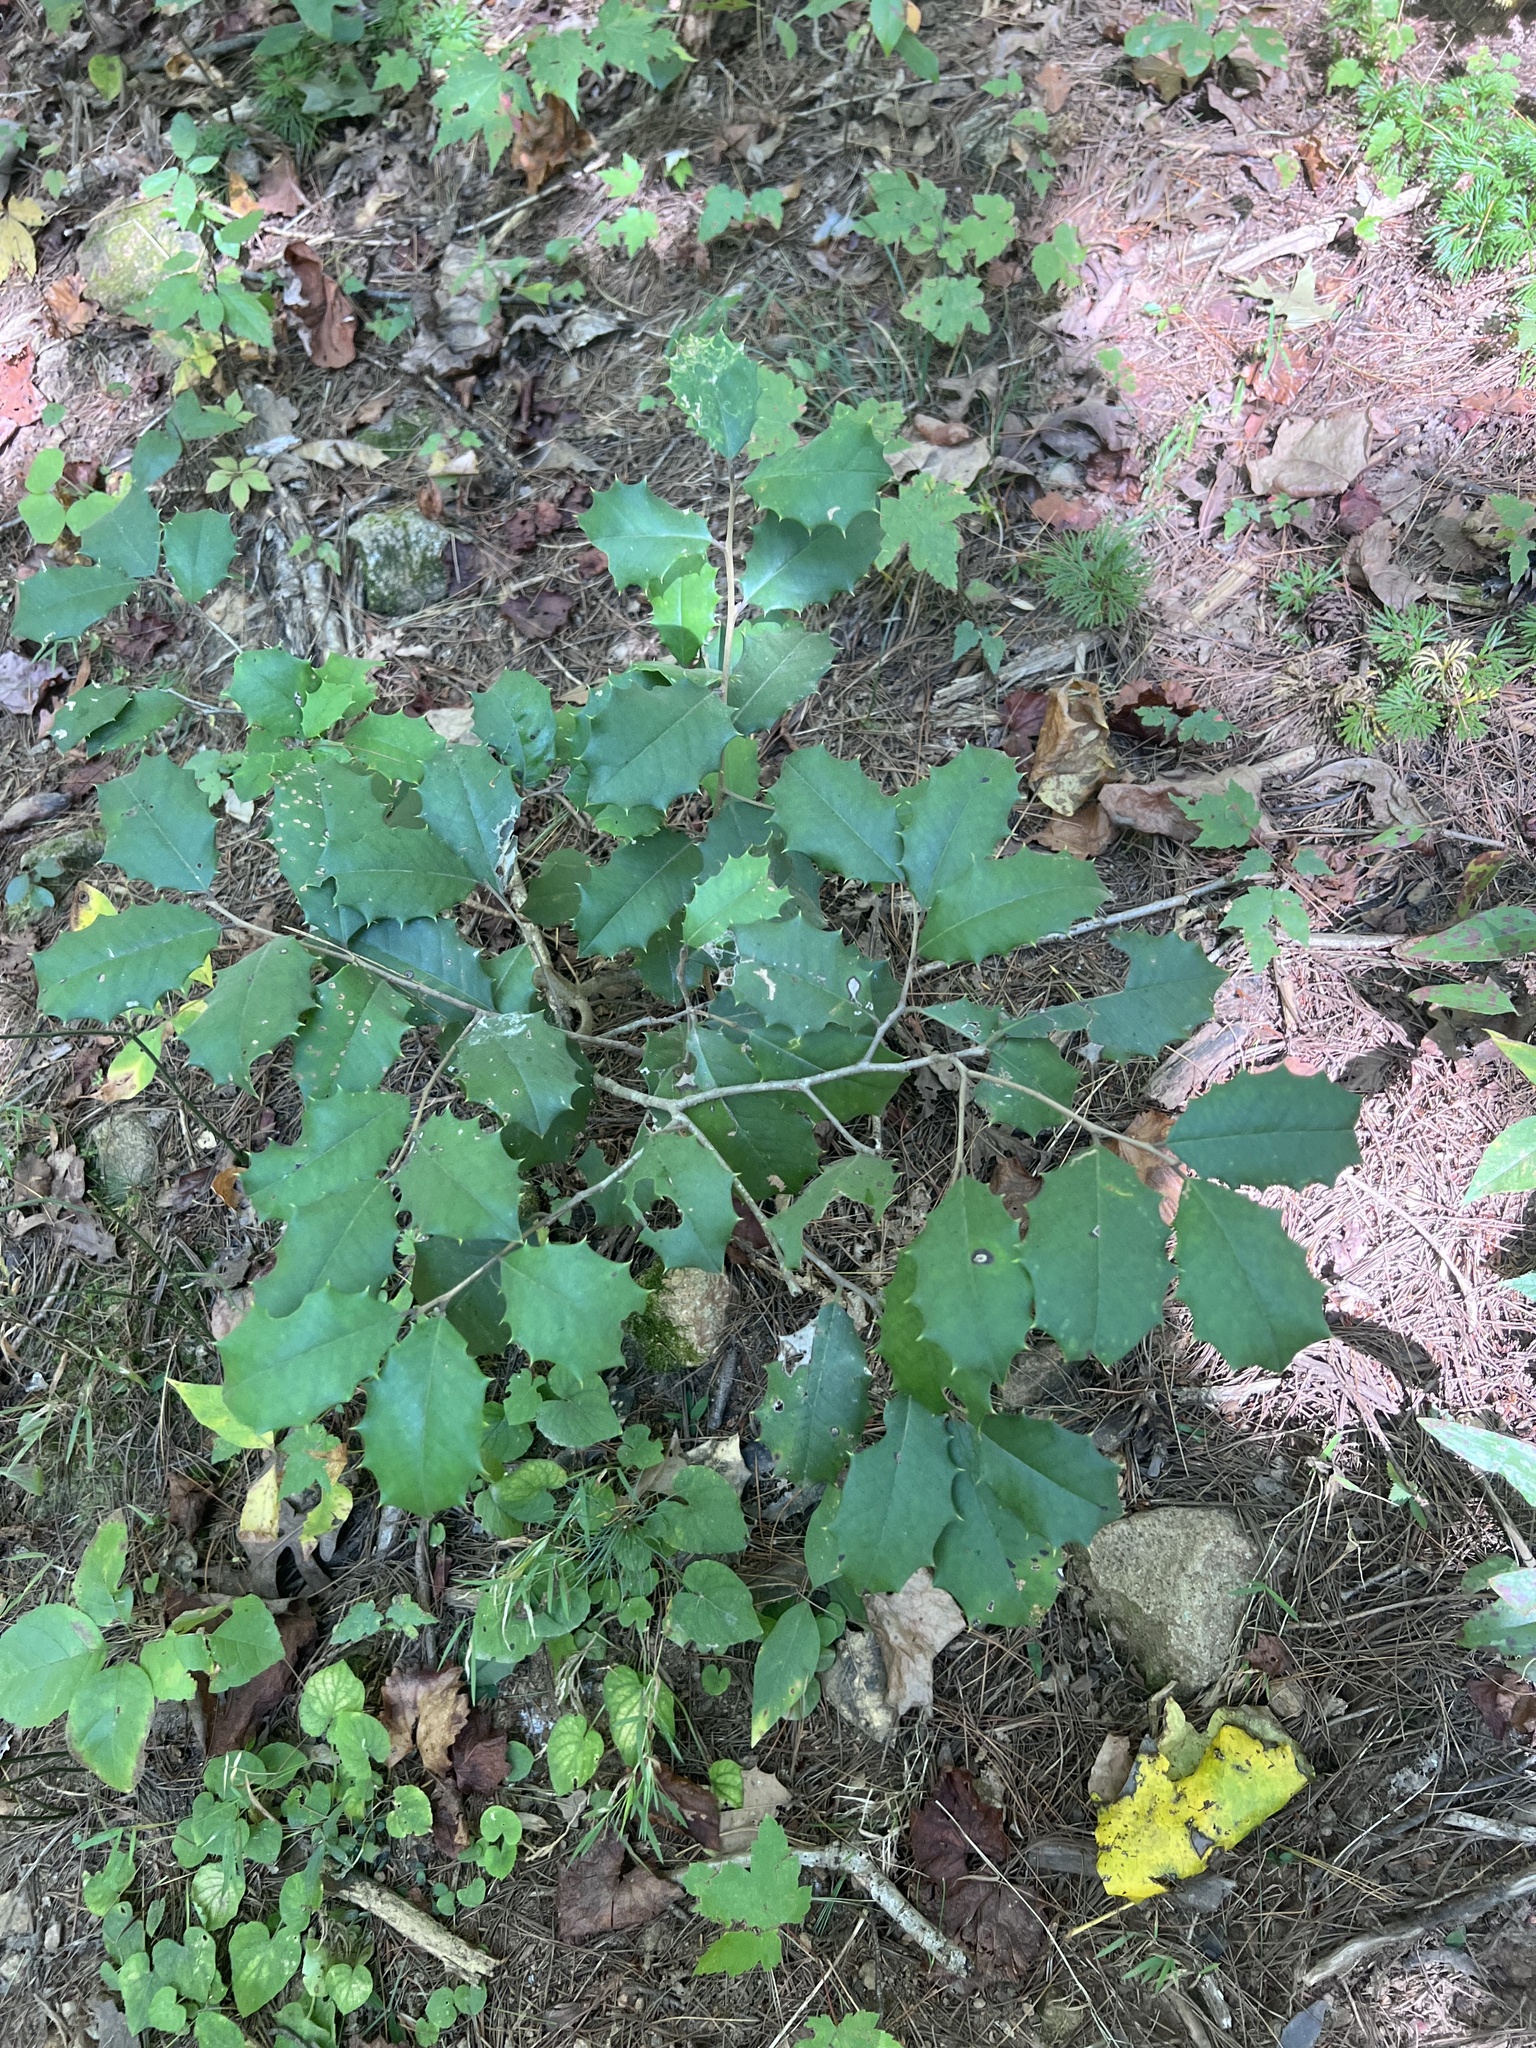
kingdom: Plantae
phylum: Tracheophyta
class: Magnoliopsida
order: Aquifoliales
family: Aquifoliaceae
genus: Ilex
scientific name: Ilex opaca
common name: American holly
